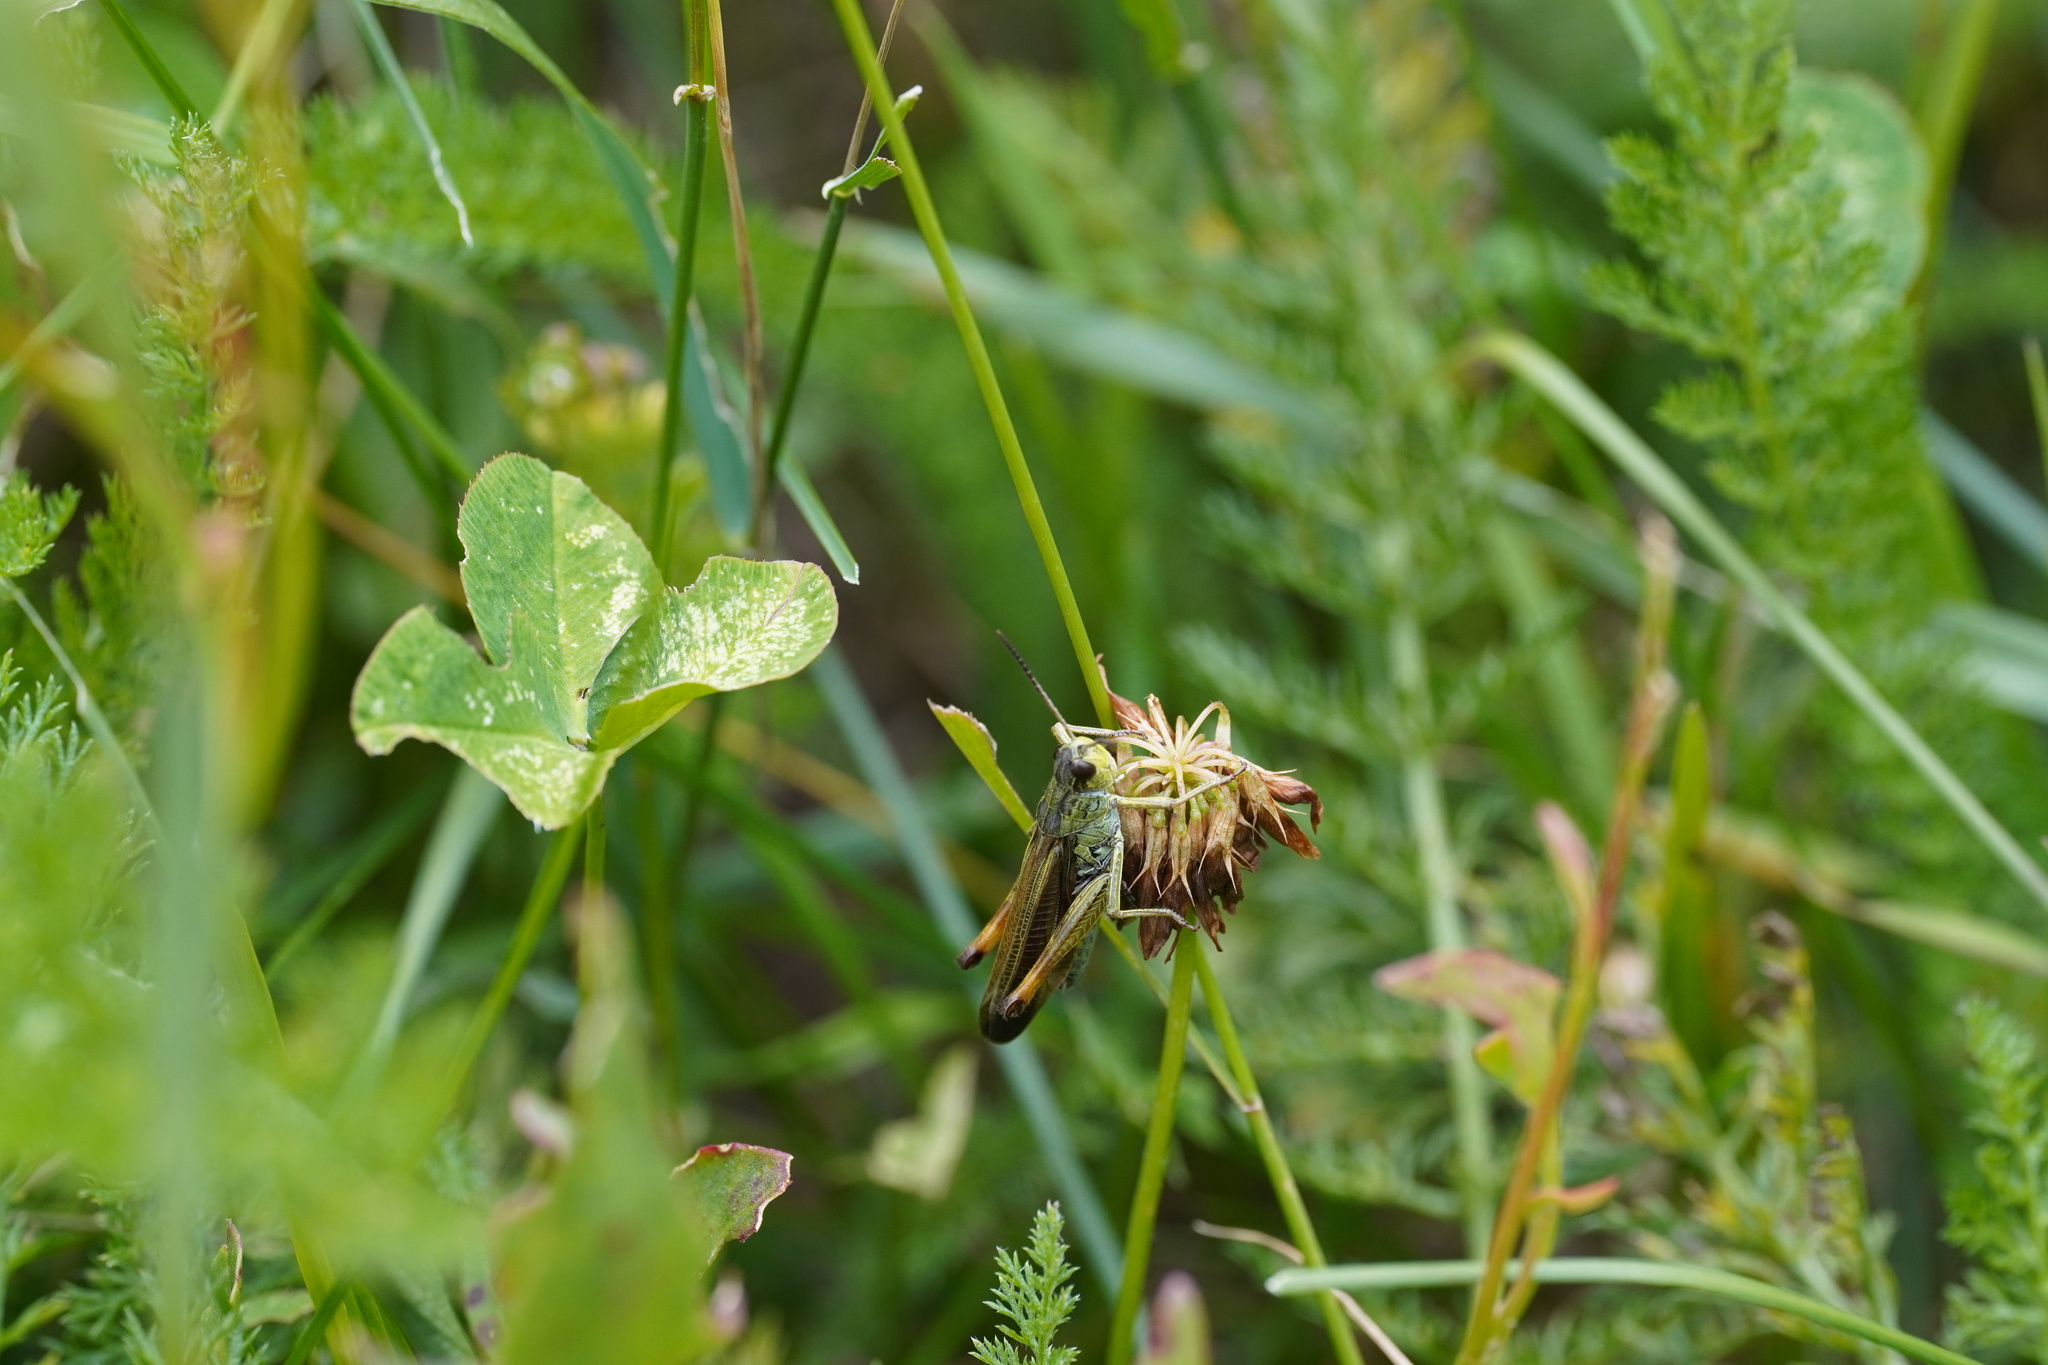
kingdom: Animalia
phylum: Arthropoda
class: Insecta
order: Orthoptera
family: Acrididae
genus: Stauroderus
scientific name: Stauroderus scalaris
